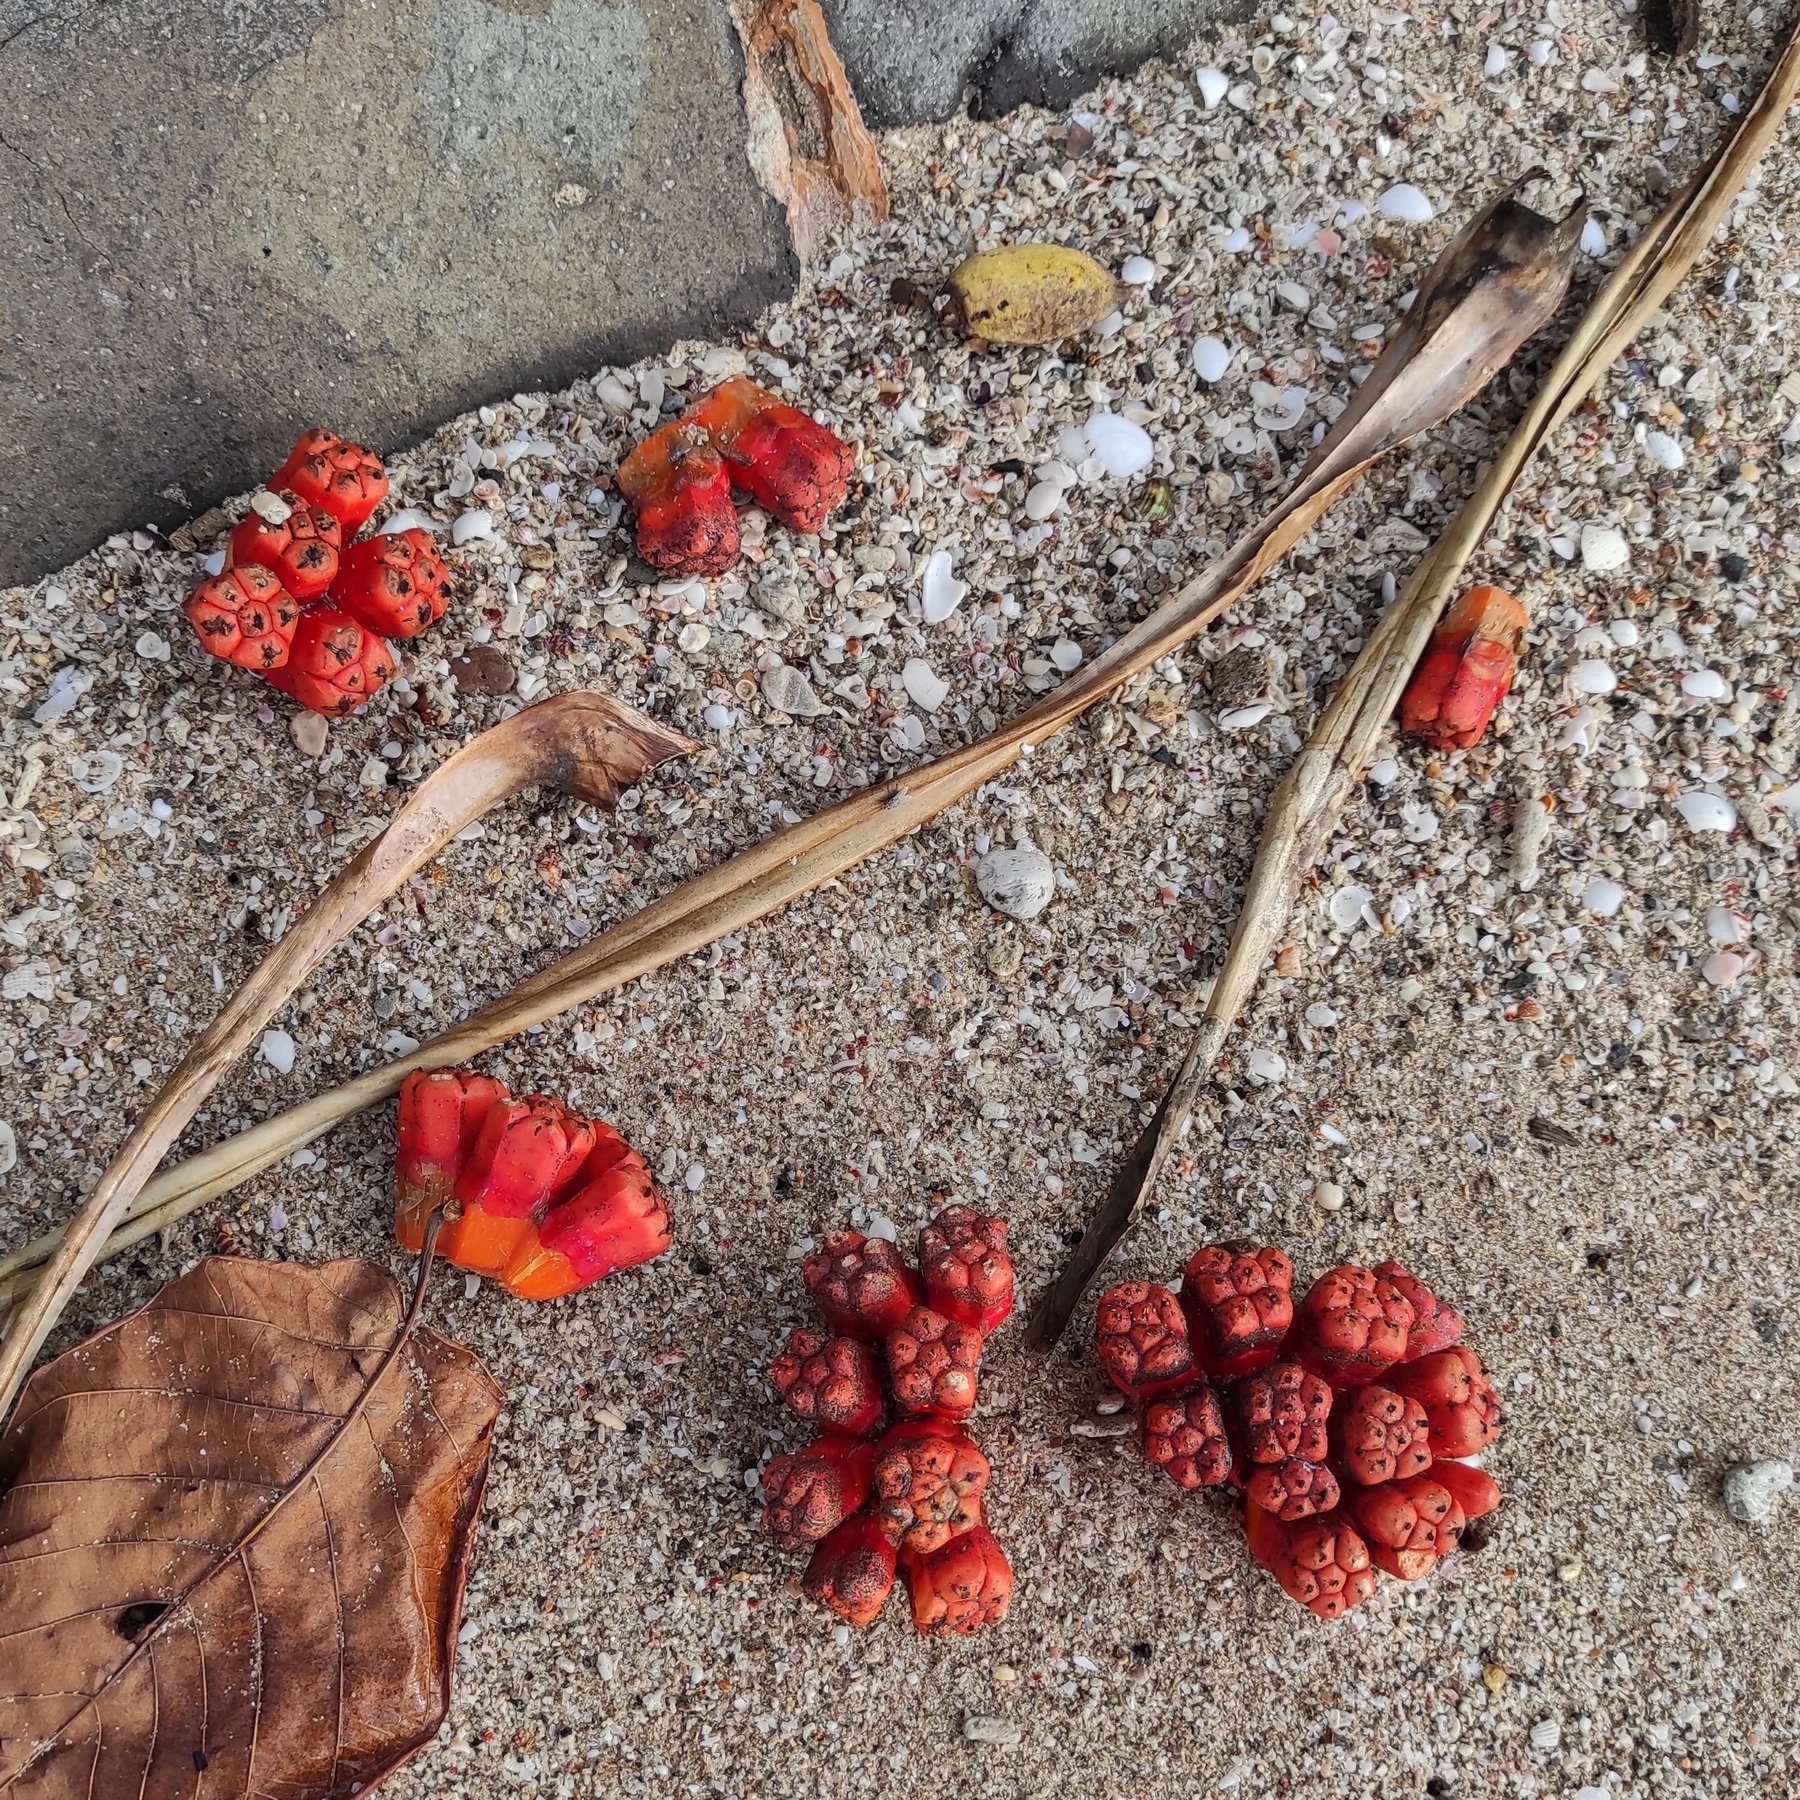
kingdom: Plantae
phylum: Tracheophyta
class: Liliopsida
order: Pandanales
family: Pandanaceae
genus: Pandanus
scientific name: Pandanus odorifer
